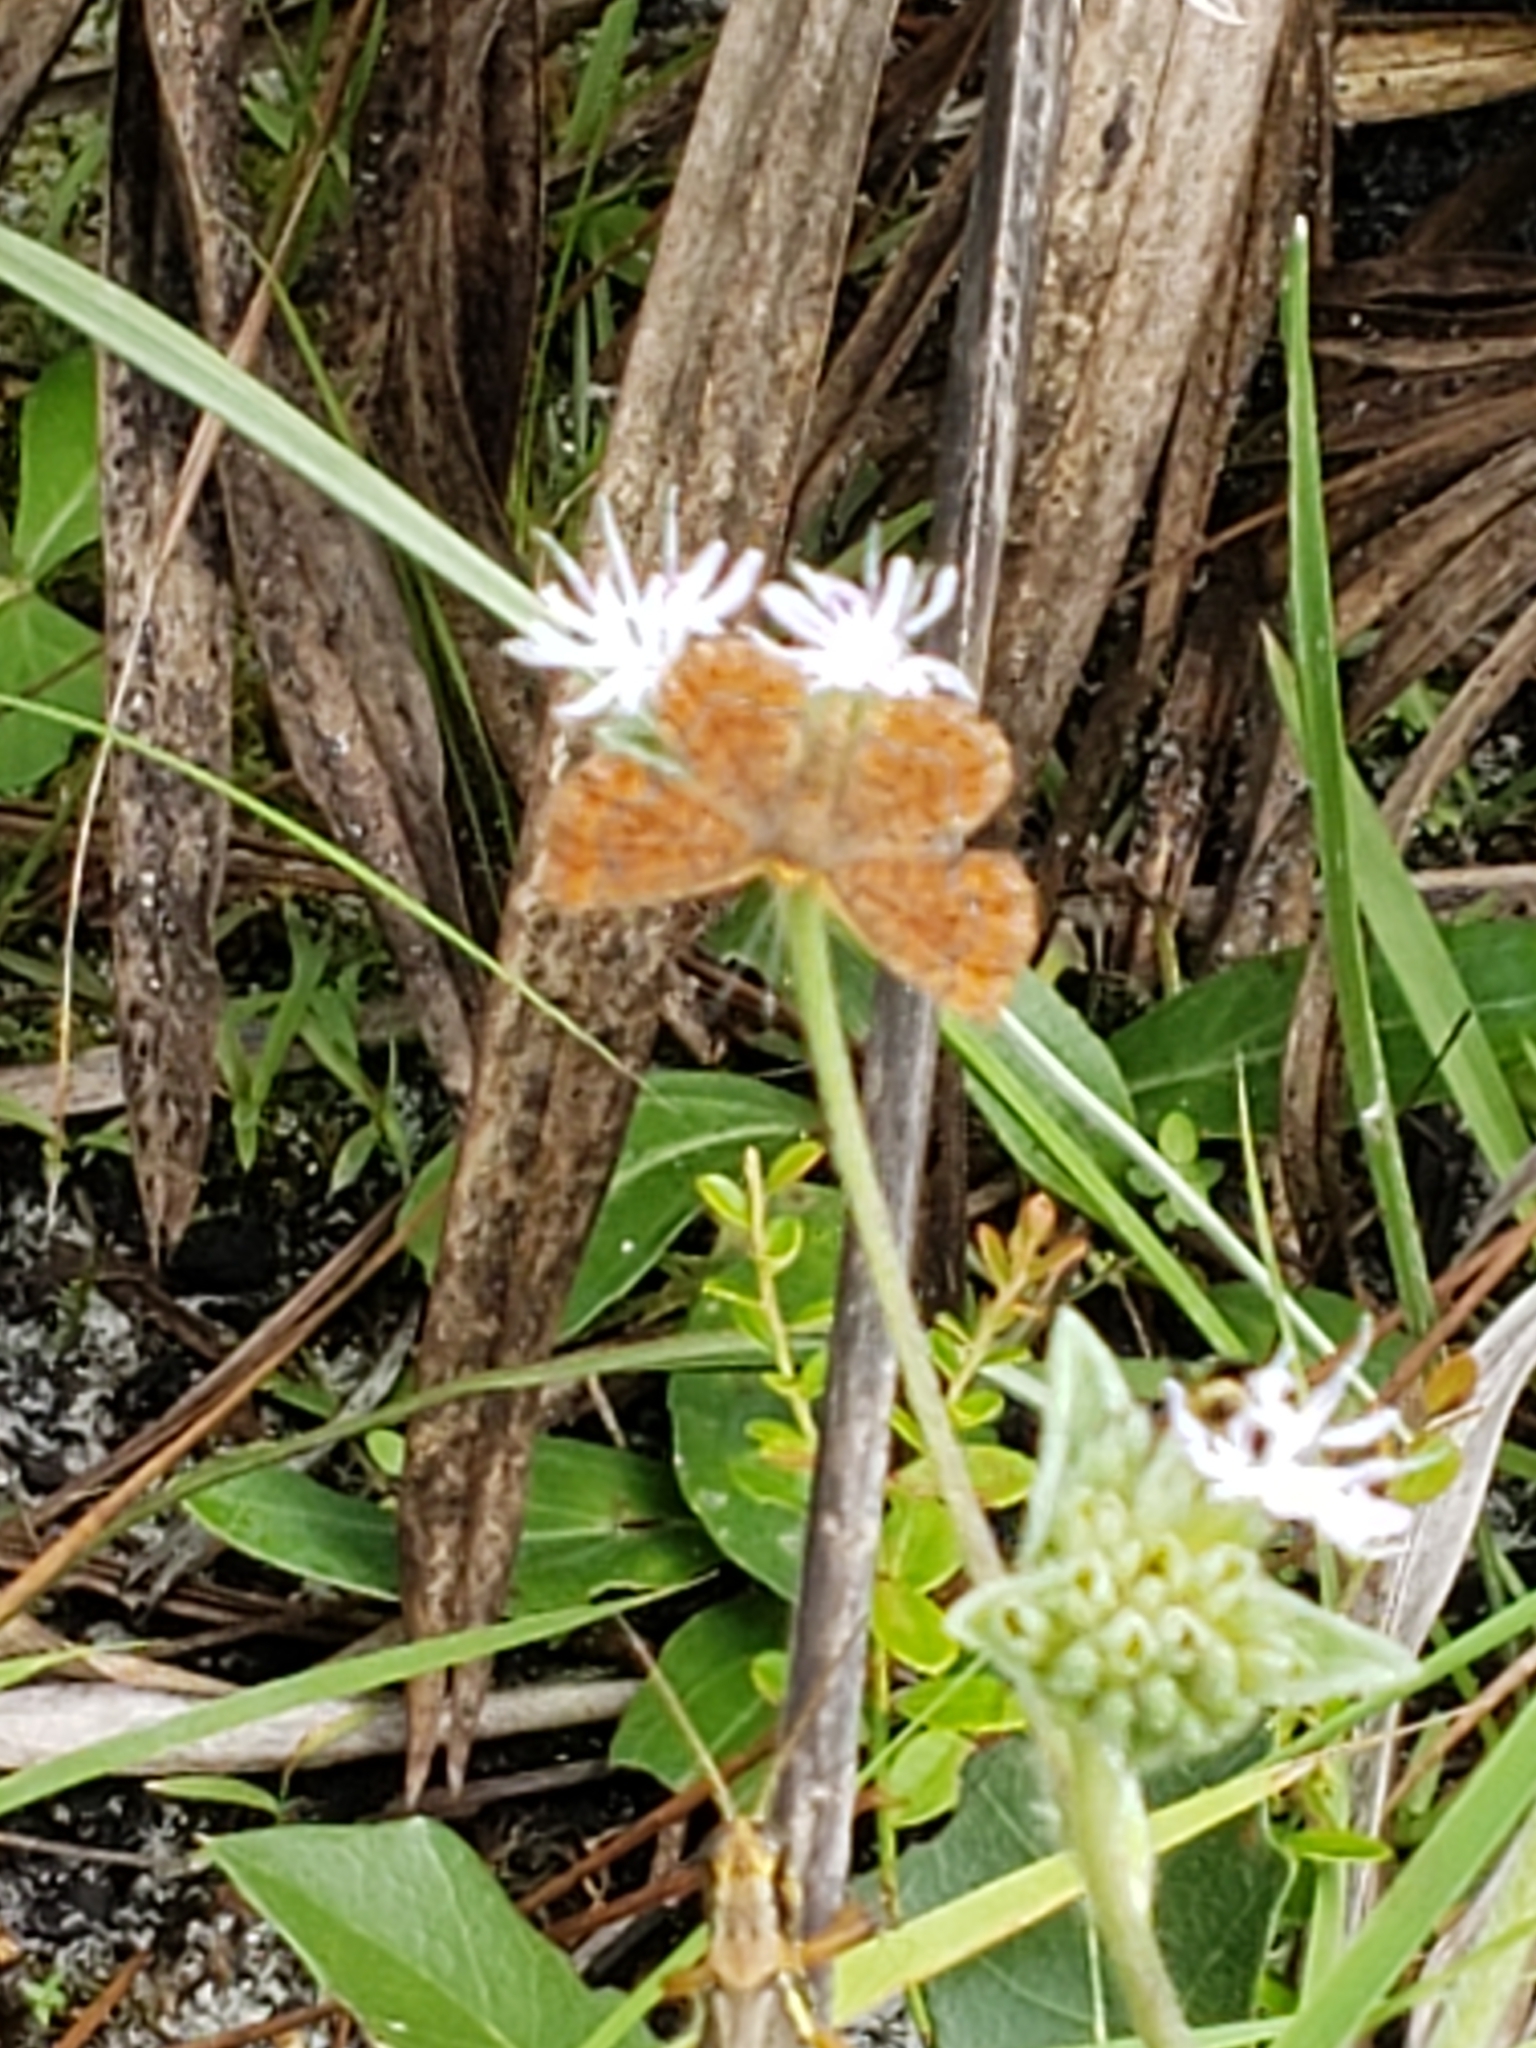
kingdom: Animalia
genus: Calephelis
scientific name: Calephelis virginiensis
